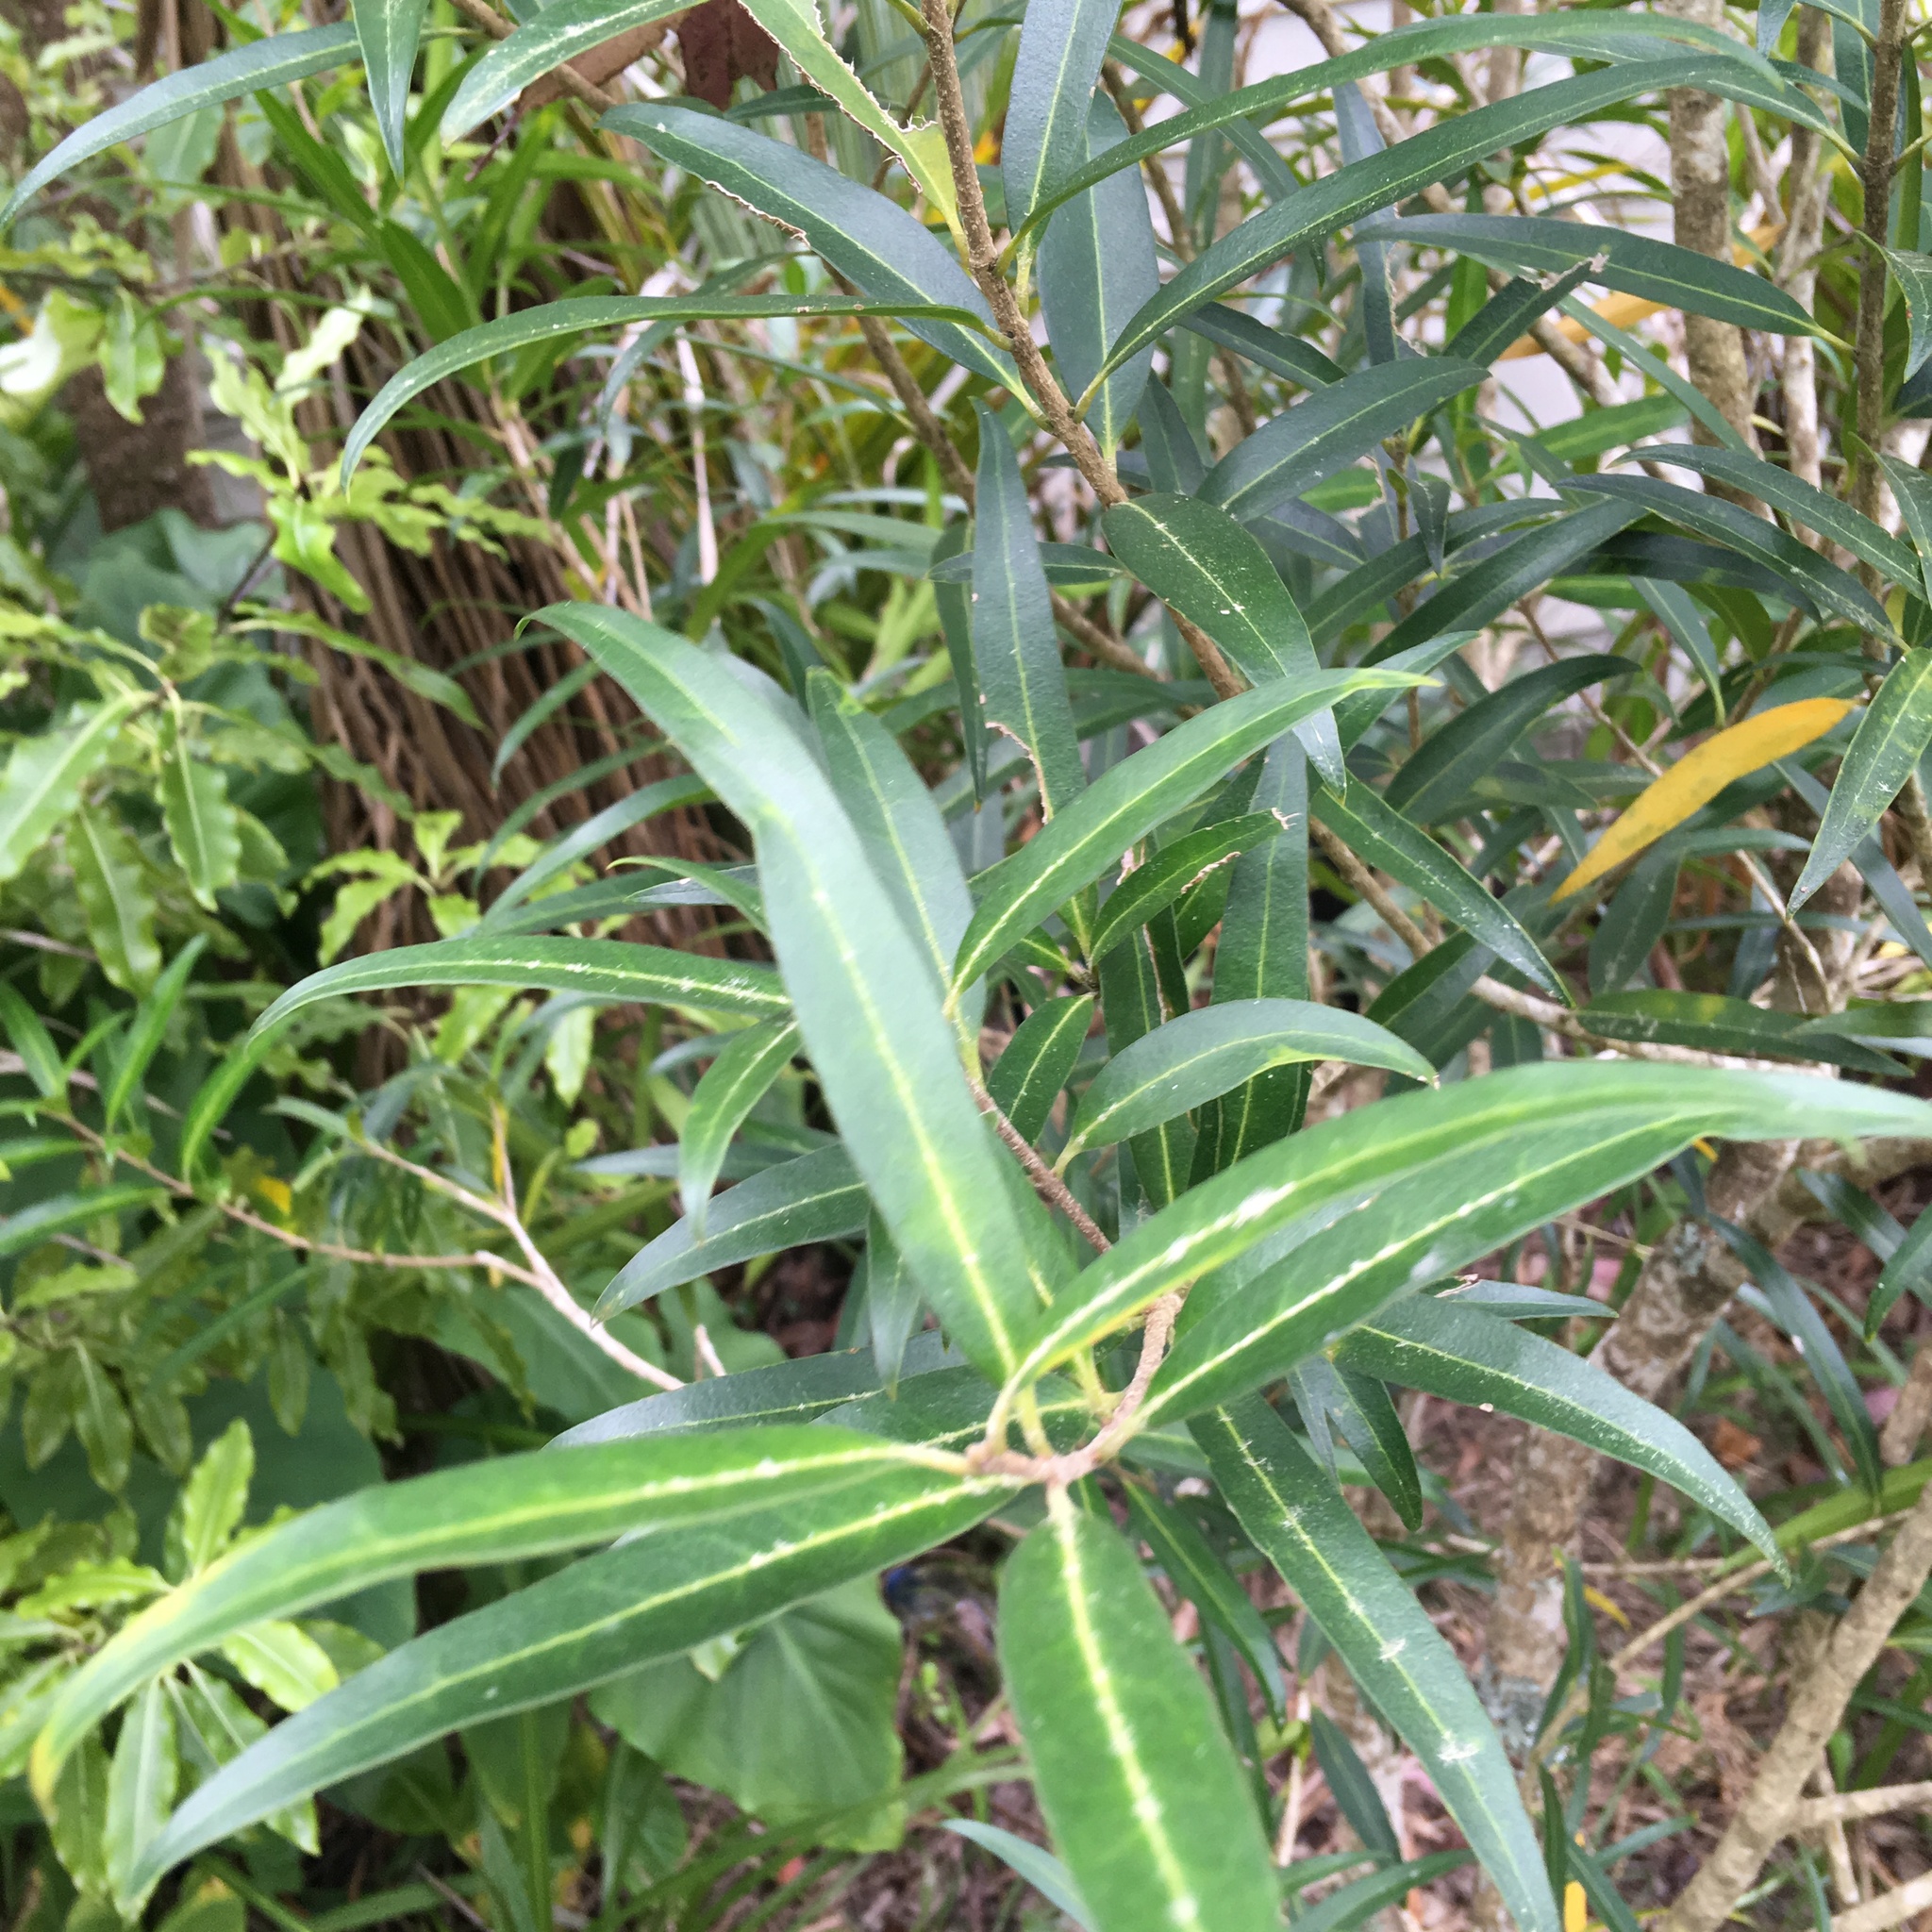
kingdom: Plantae
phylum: Tracheophyta
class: Magnoliopsida
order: Lamiales
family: Oleaceae
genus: Nestegis
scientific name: Nestegis lanceolata
